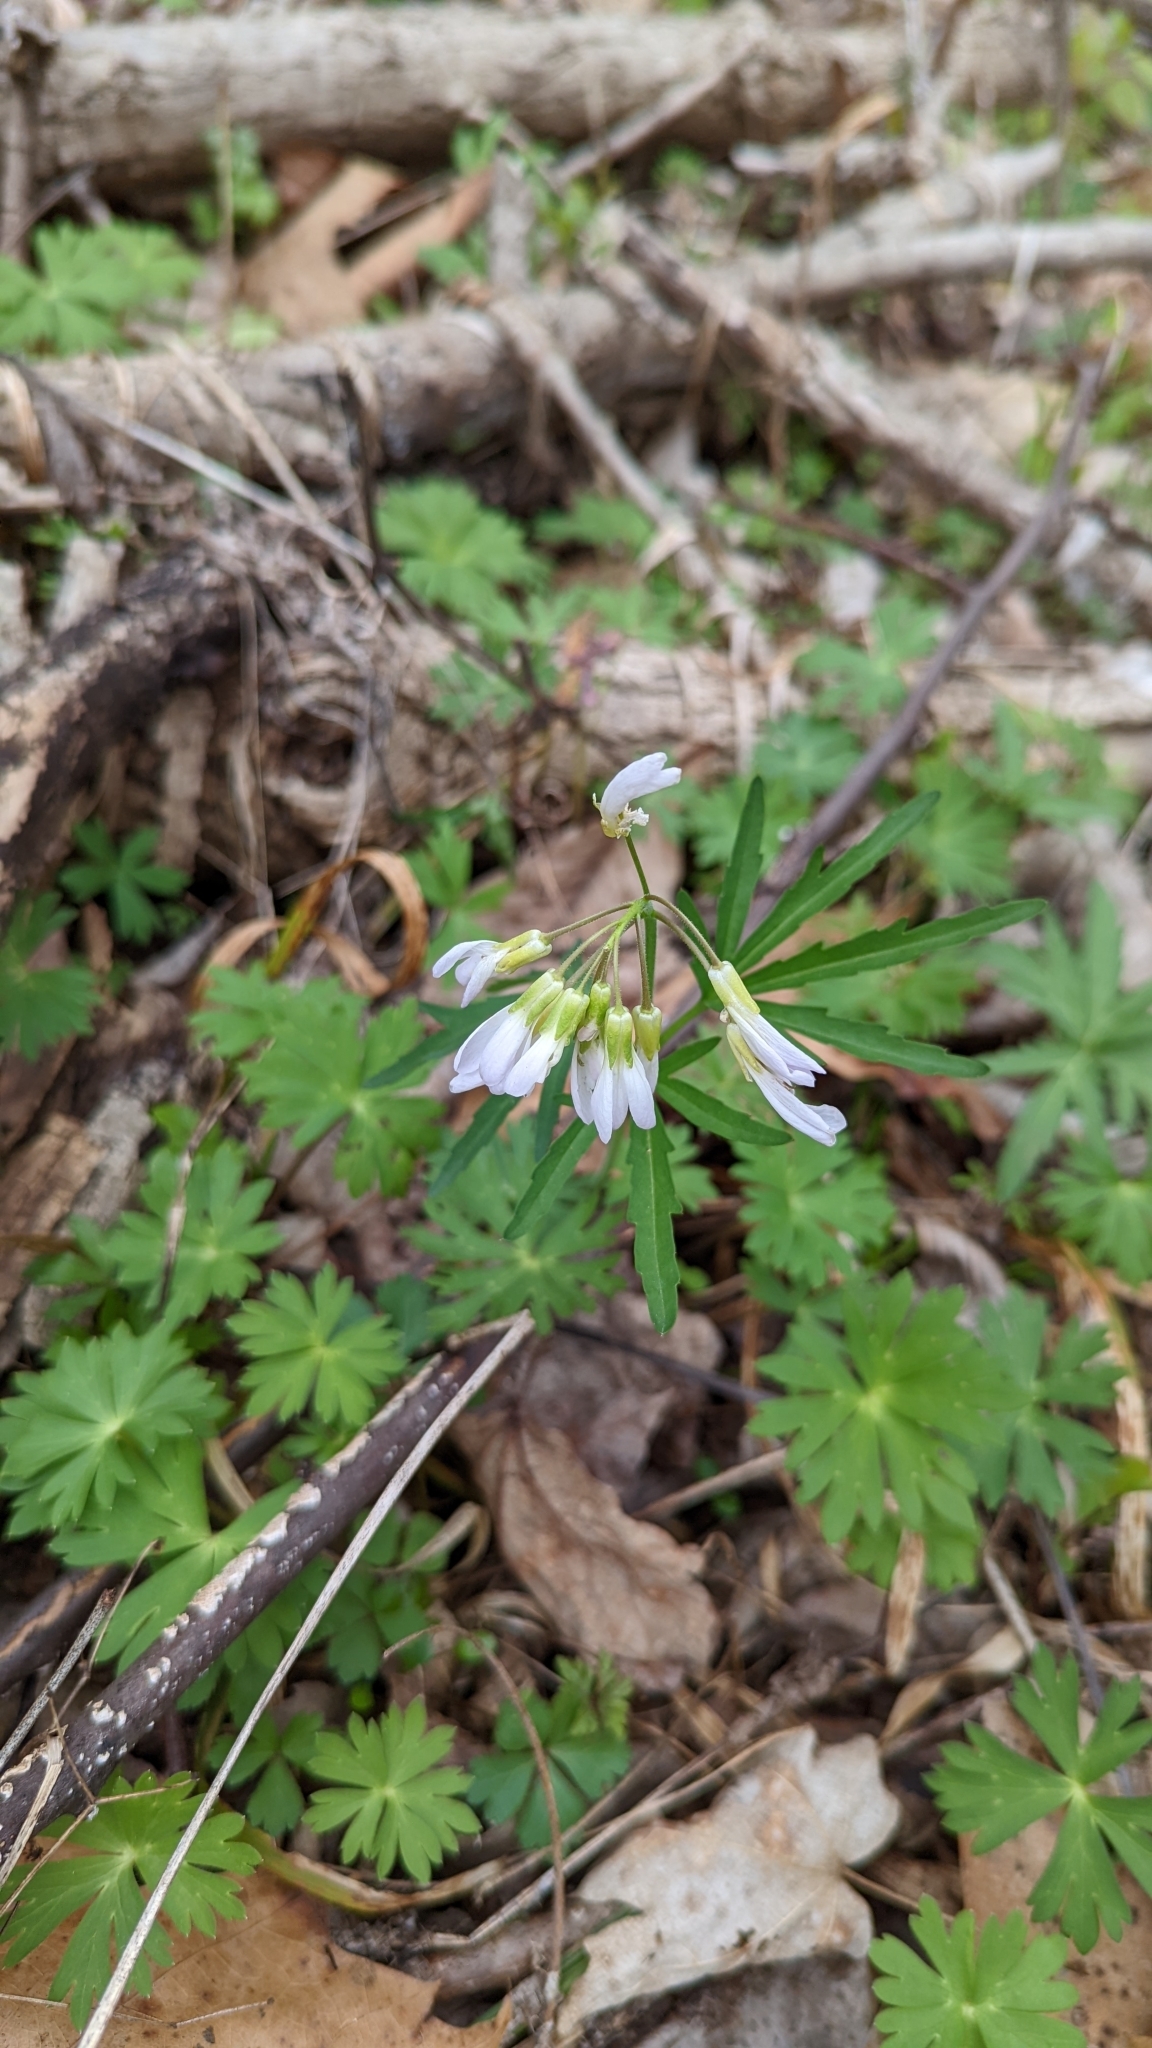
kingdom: Plantae
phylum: Tracheophyta
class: Magnoliopsida
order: Brassicales
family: Brassicaceae
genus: Cardamine
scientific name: Cardamine concatenata
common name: Cut-leaf toothcup
